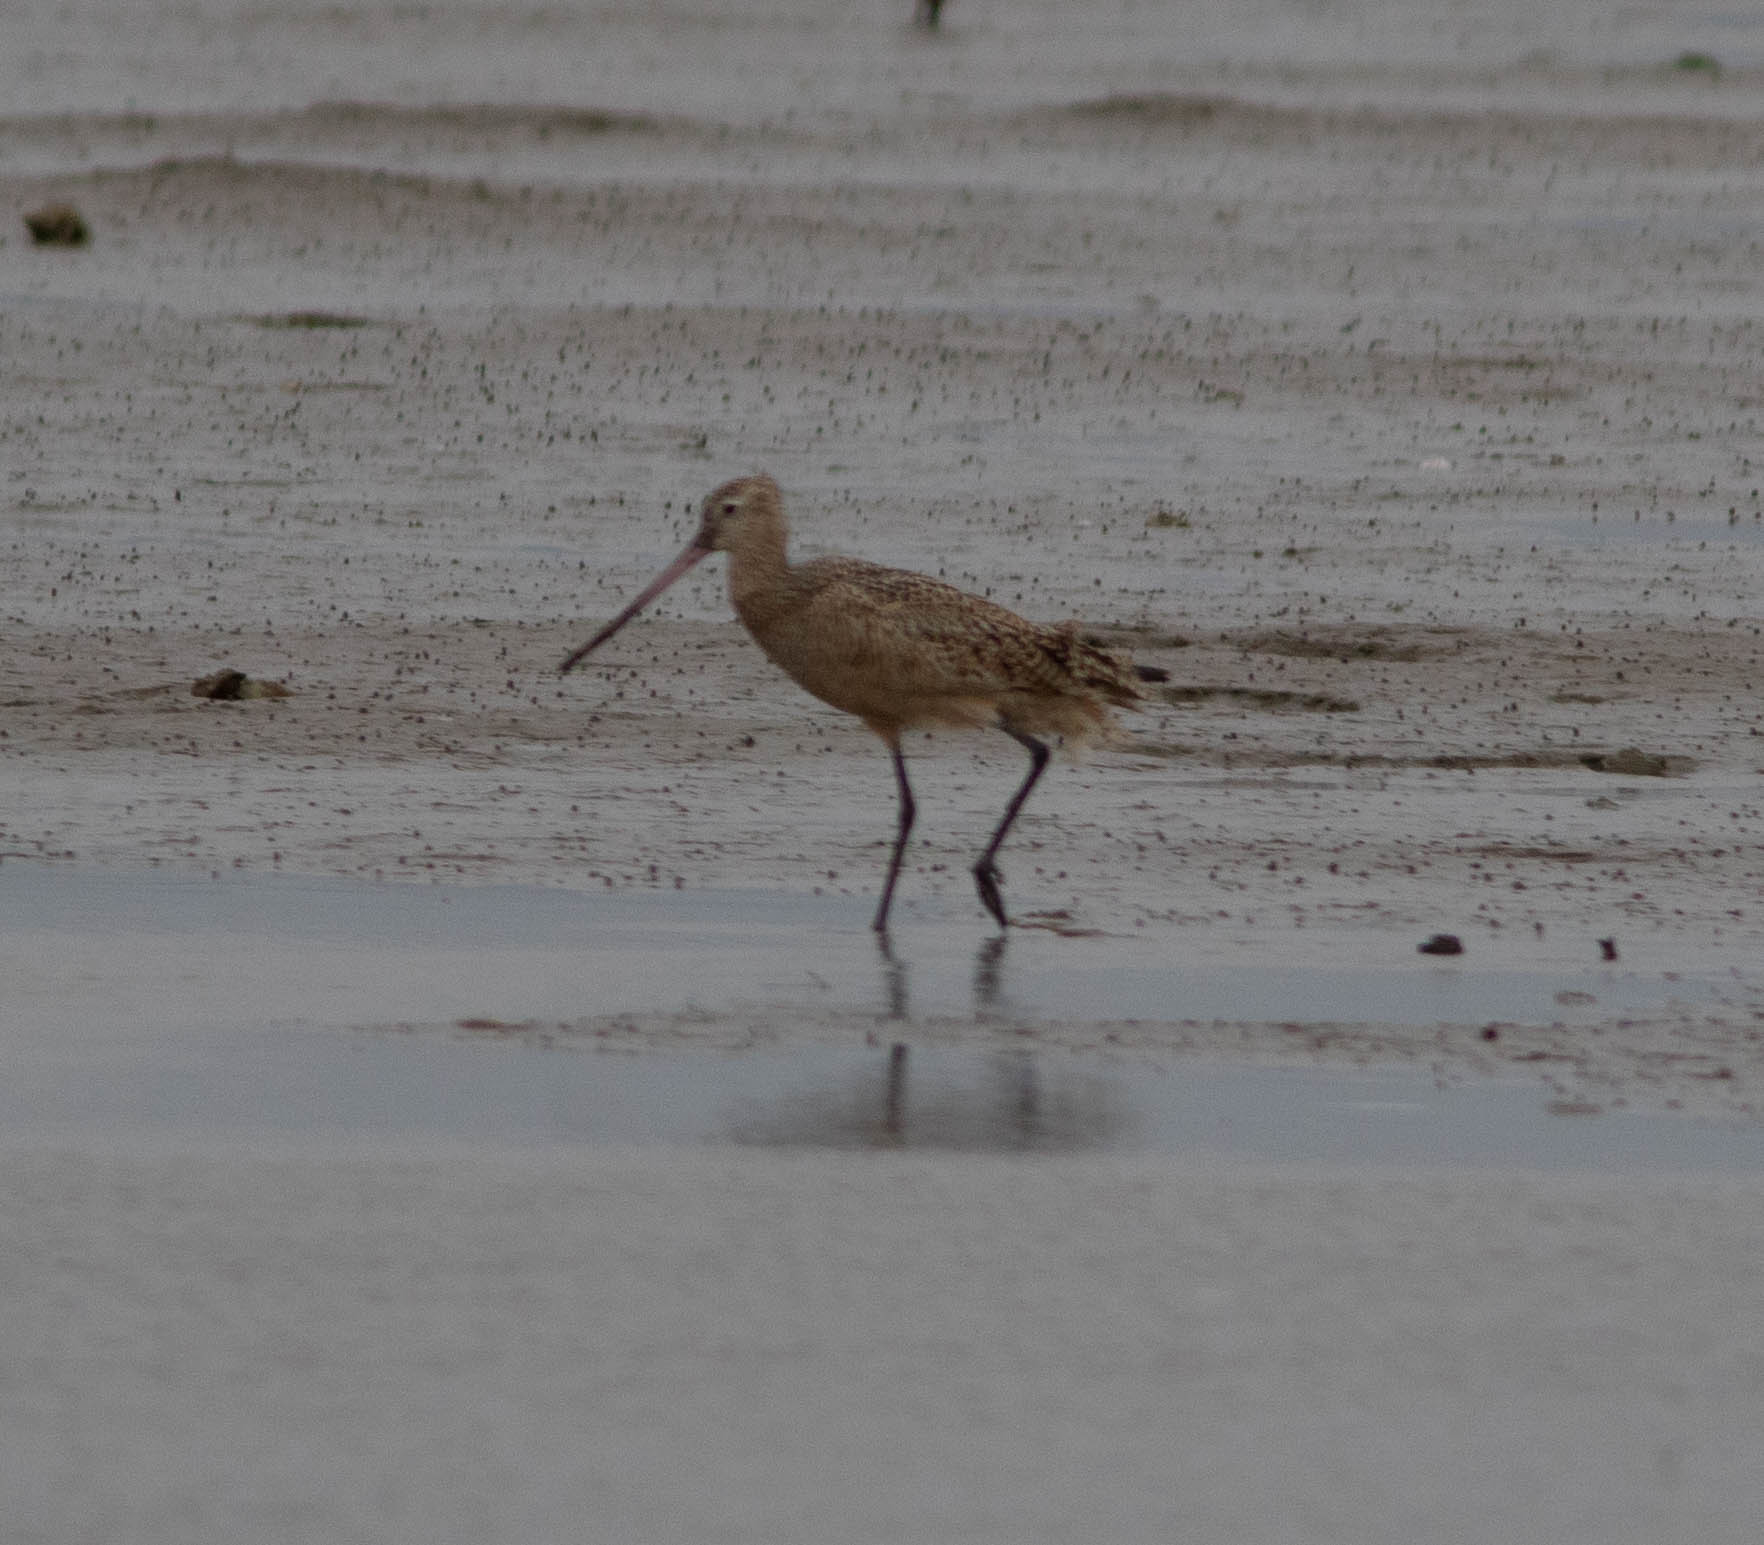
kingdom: Animalia
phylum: Chordata
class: Aves
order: Charadriiformes
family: Scolopacidae
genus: Limosa
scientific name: Limosa fedoa
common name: Marbled godwit
